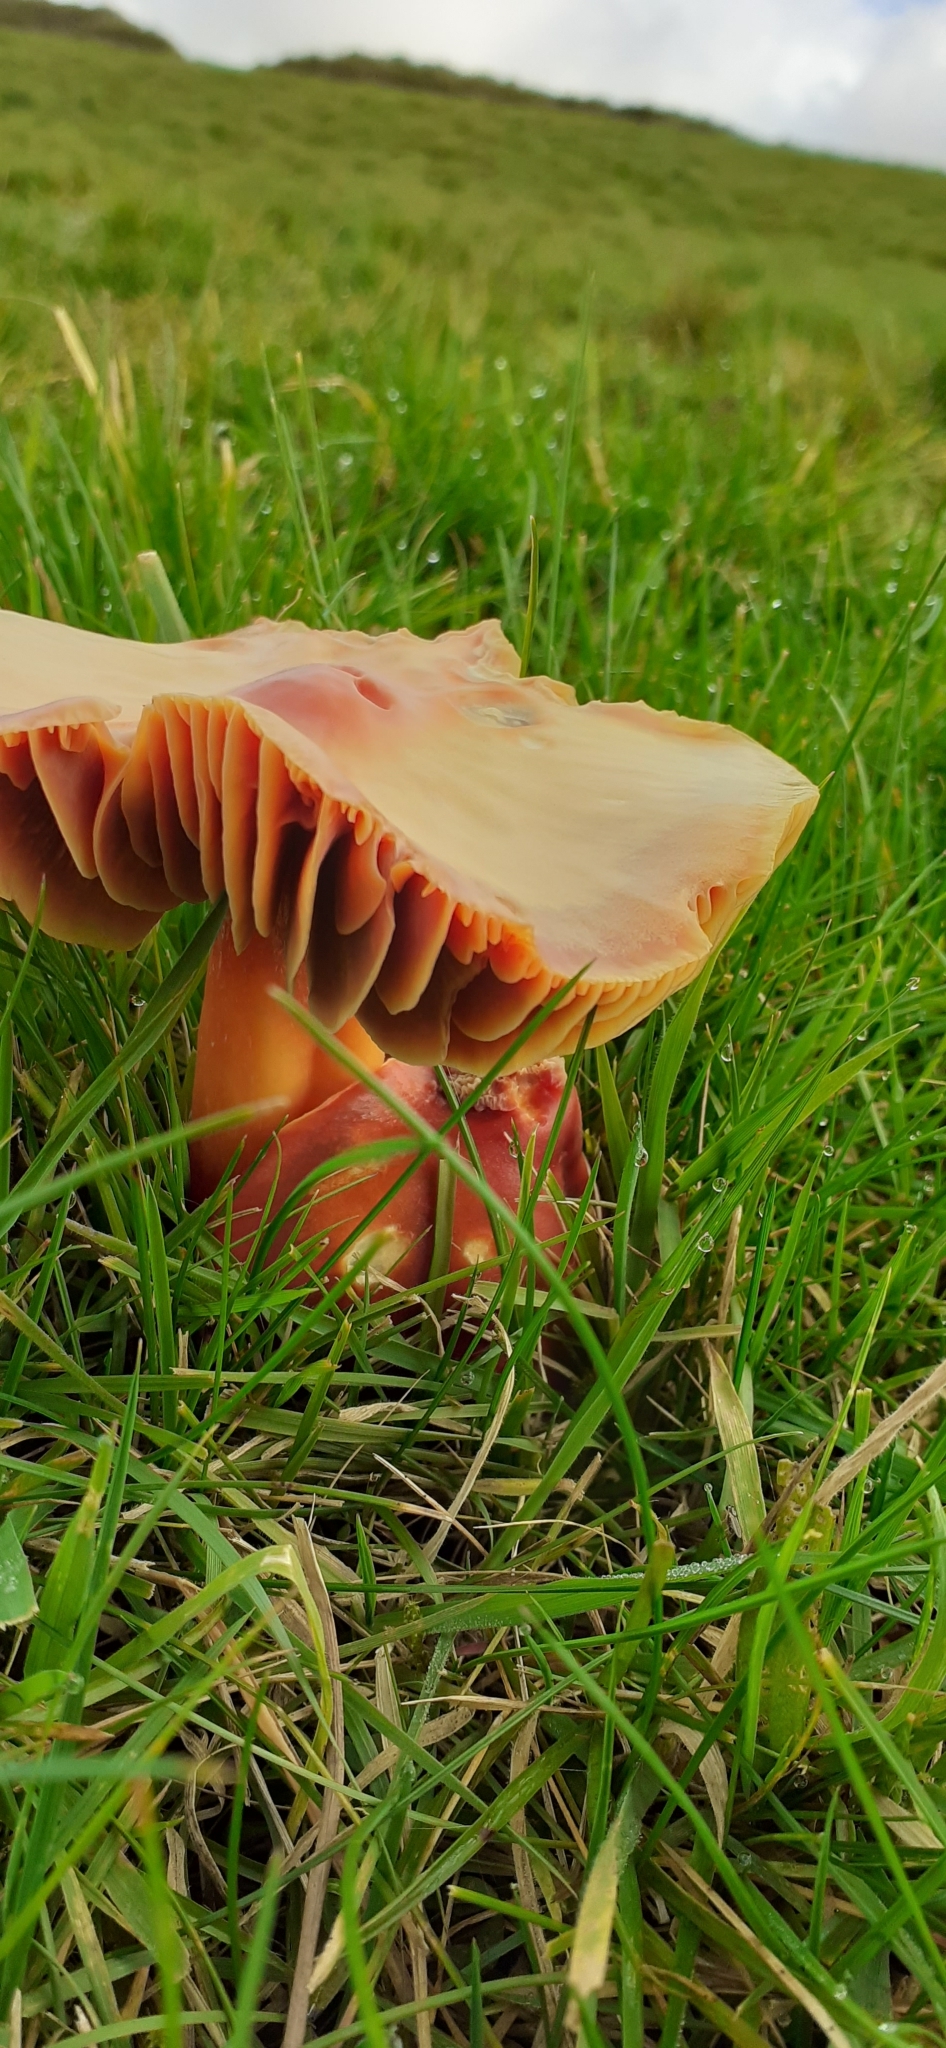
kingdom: Fungi
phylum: Basidiomycota
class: Agaricomycetes
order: Agaricales
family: Hygrophoraceae
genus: Hygrocybe
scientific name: Hygrocybe punicea
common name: Crimson waxcap
